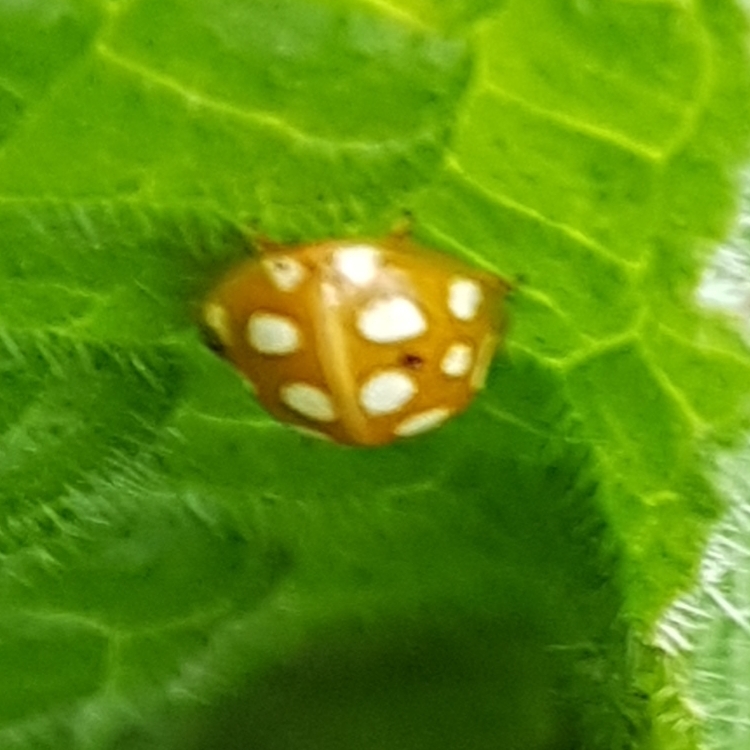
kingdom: Animalia
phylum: Arthropoda
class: Insecta
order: Coleoptera
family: Coccinellidae
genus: Halyzia
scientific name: Halyzia sedecimguttata
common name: Orange ladybird
